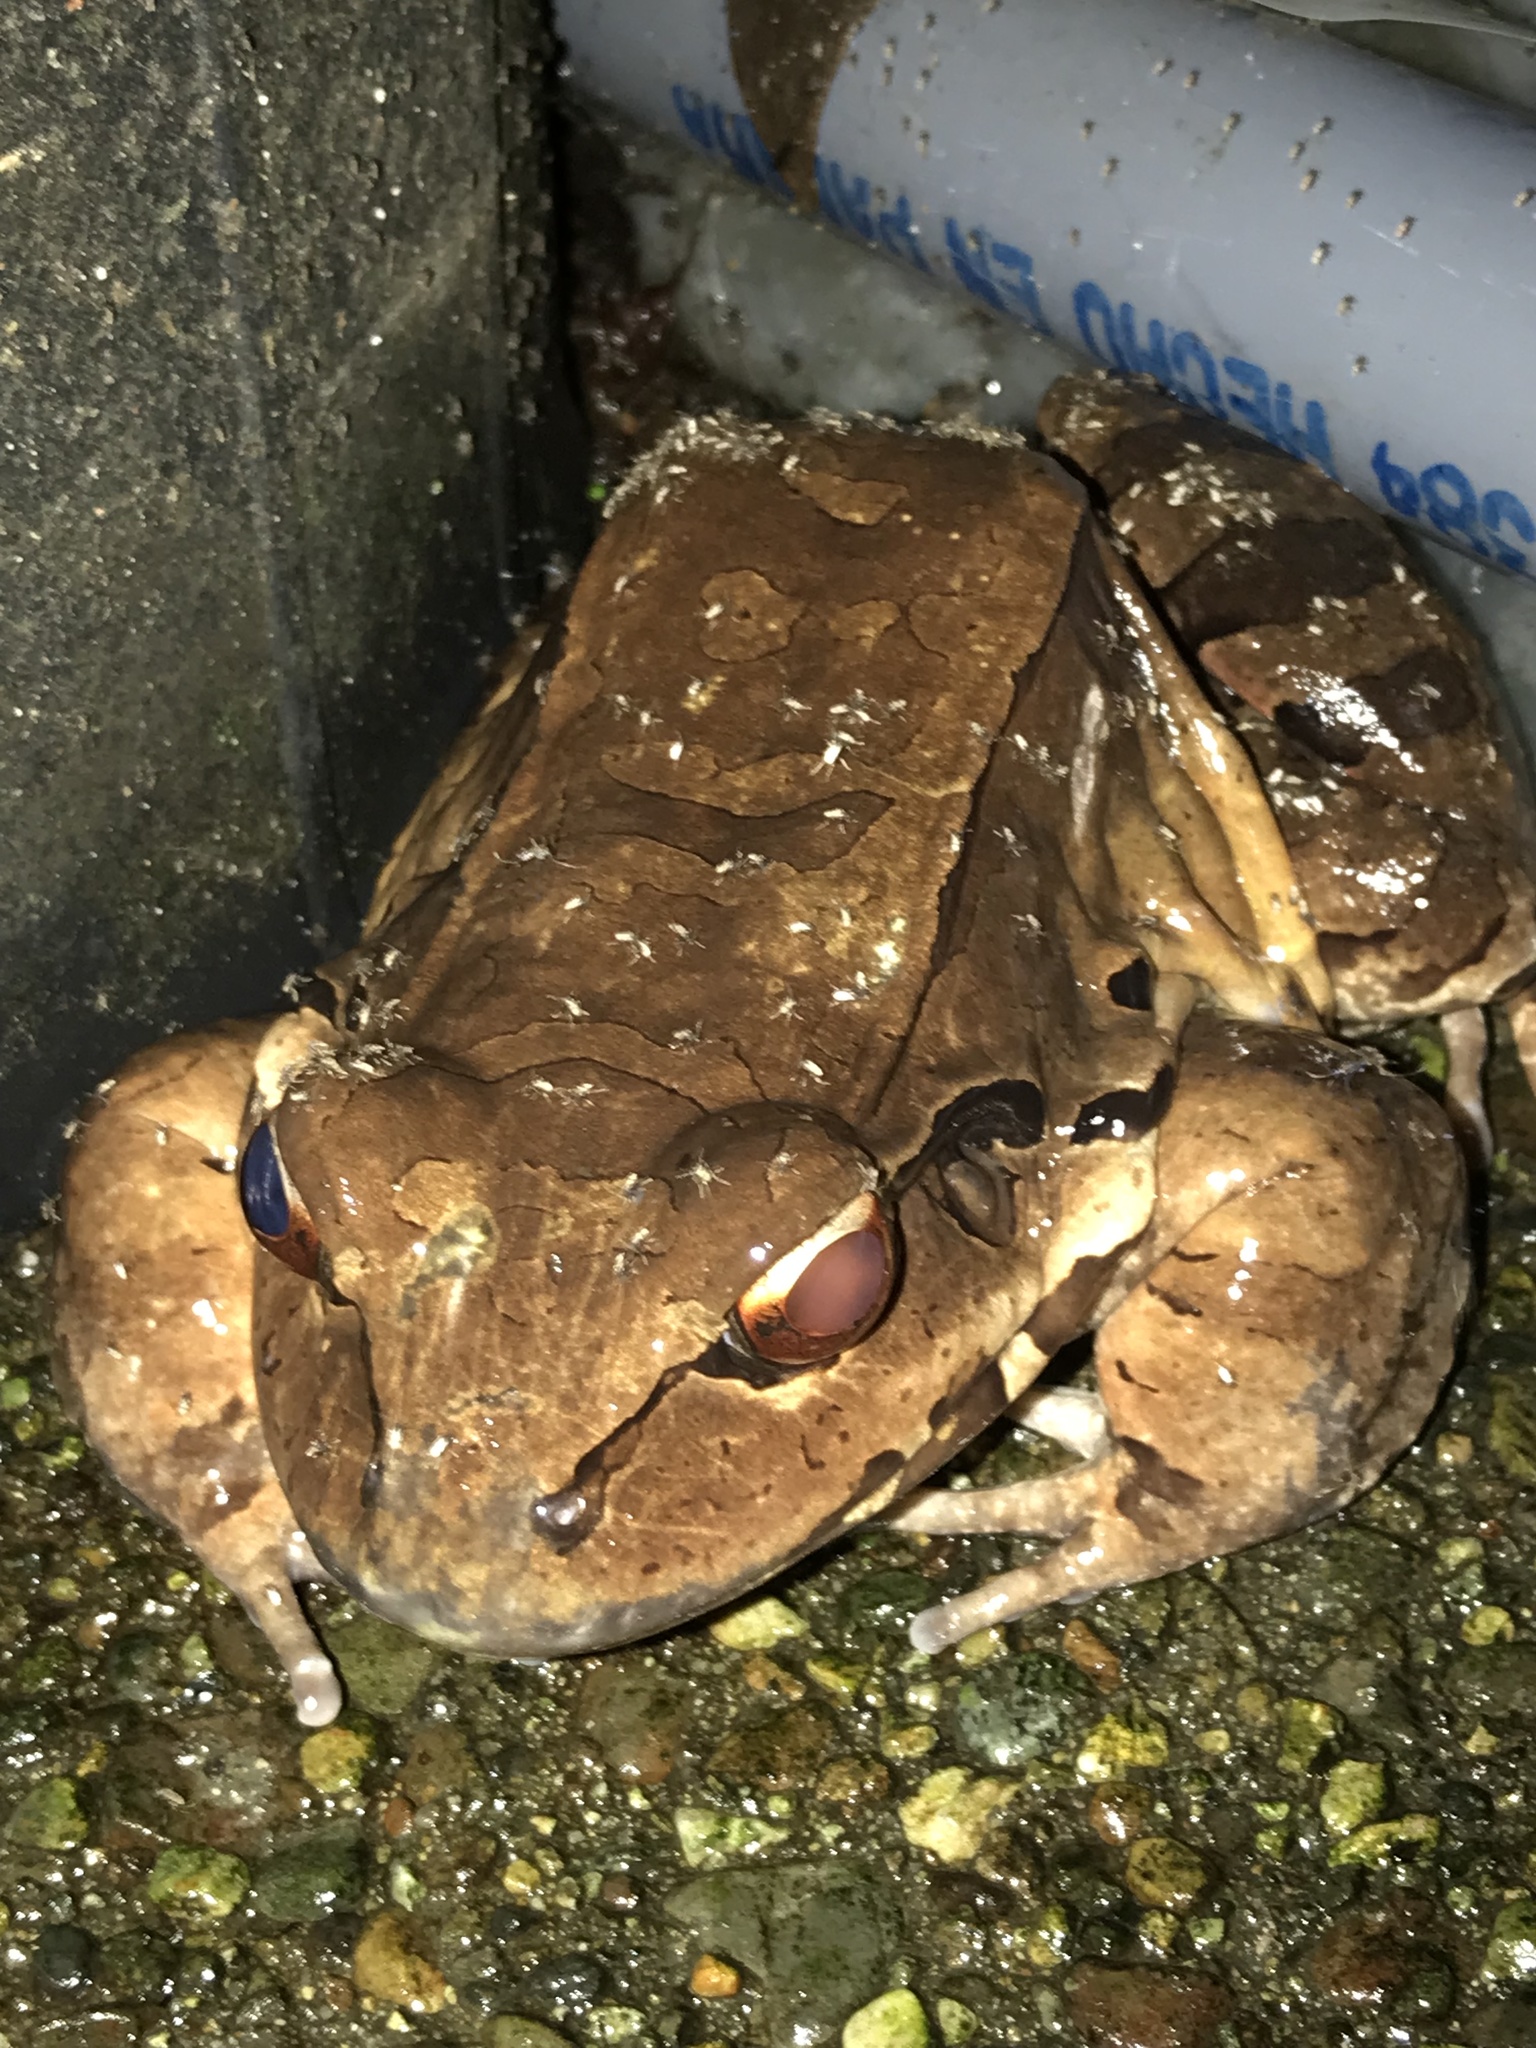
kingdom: Animalia
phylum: Chordata
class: Amphibia
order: Anura
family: Leptodactylidae
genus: Leptodactylus
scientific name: Leptodactylus savagei
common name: Savage's thin-toed frog
